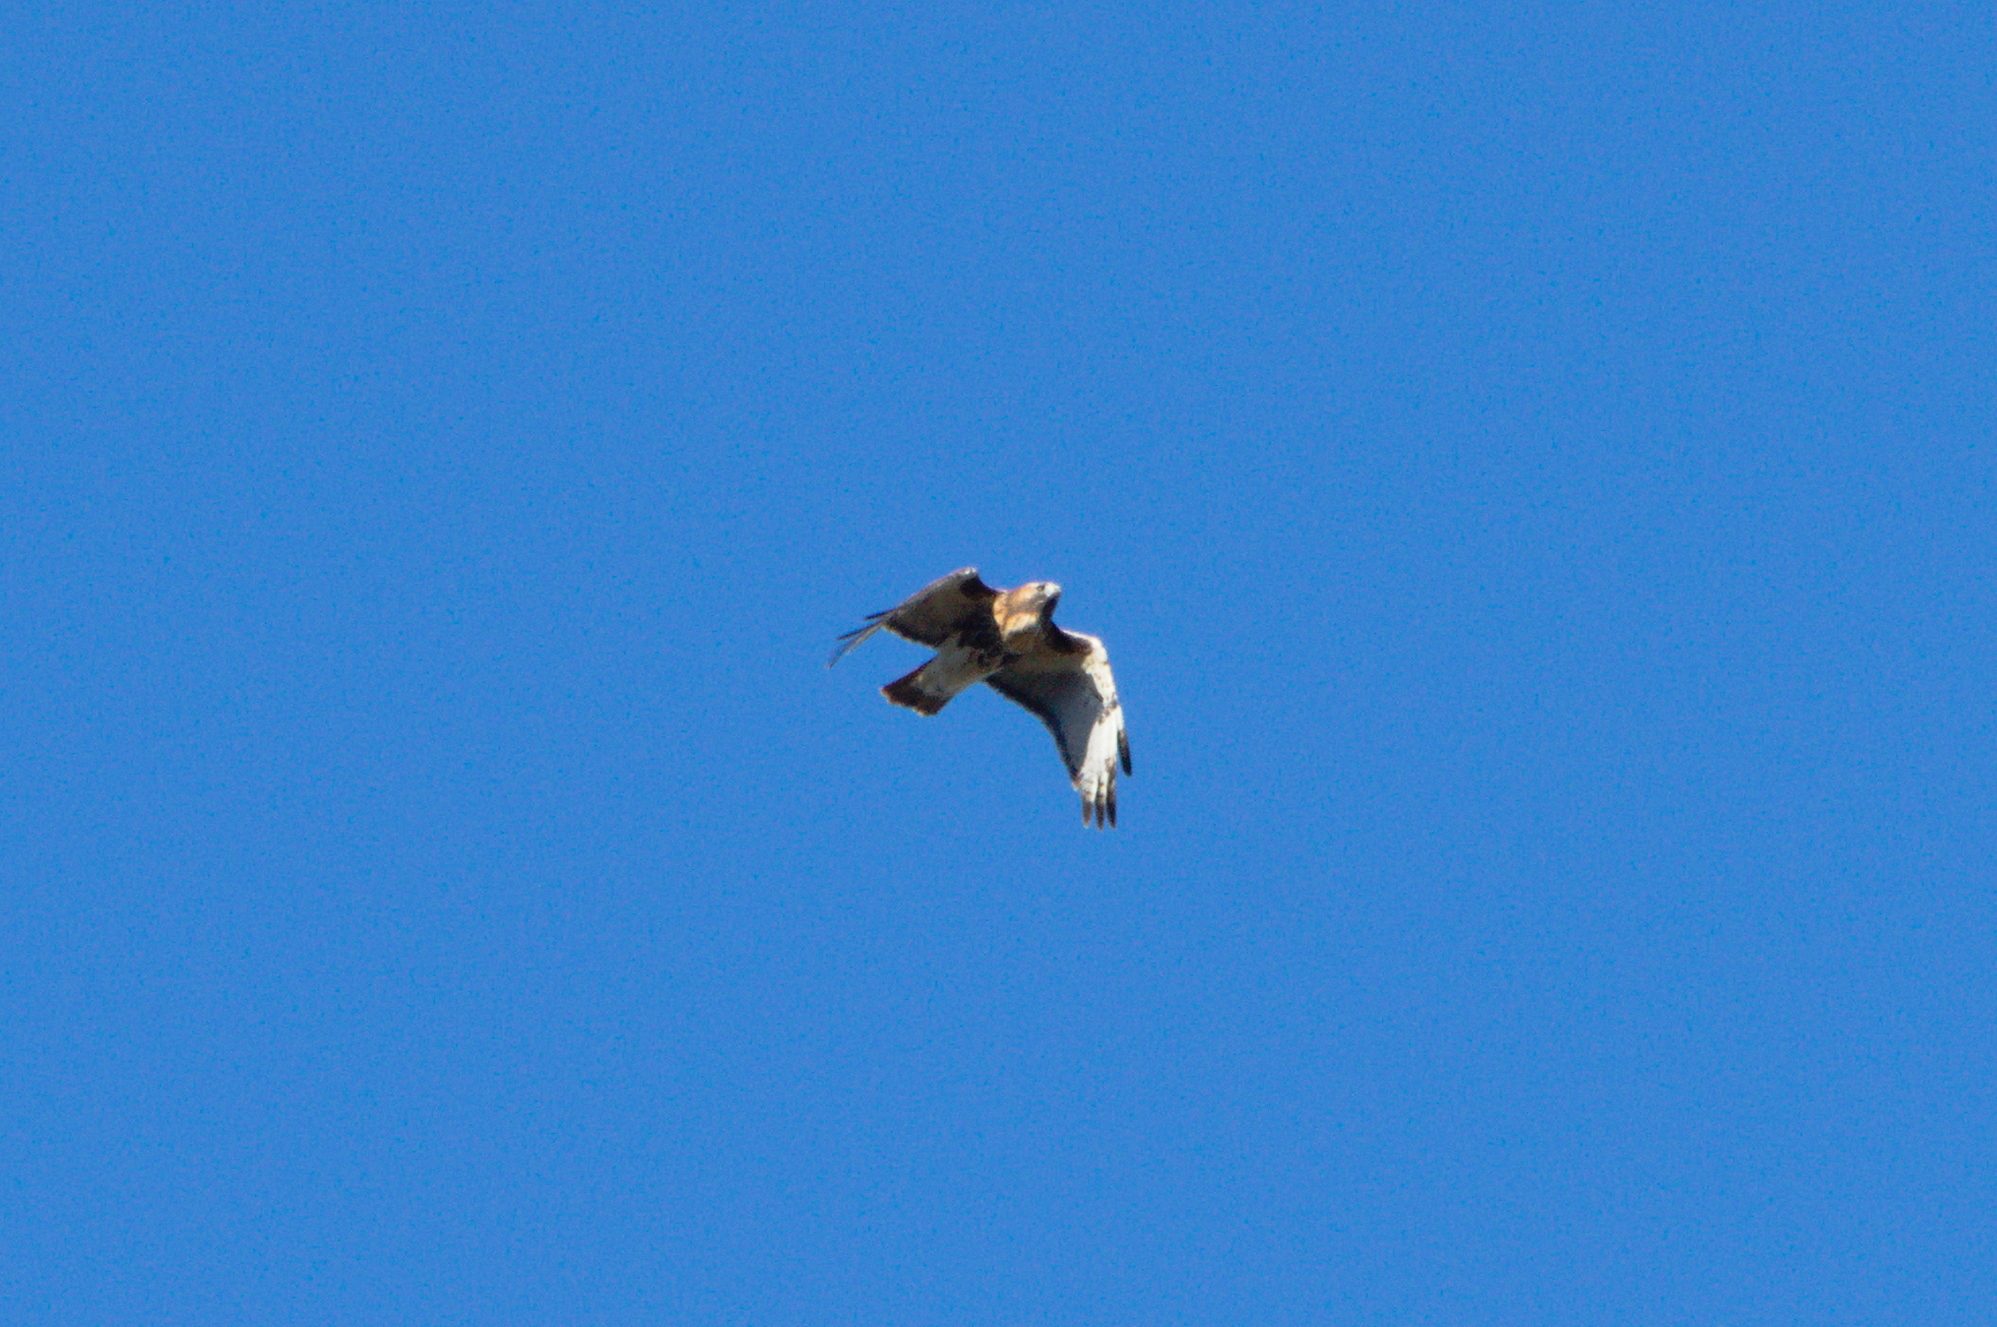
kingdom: Animalia
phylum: Chordata
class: Aves
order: Accipitriformes
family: Accipitridae
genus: Buteo
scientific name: Buteo jamaicensis
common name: Red-tailed hawk
